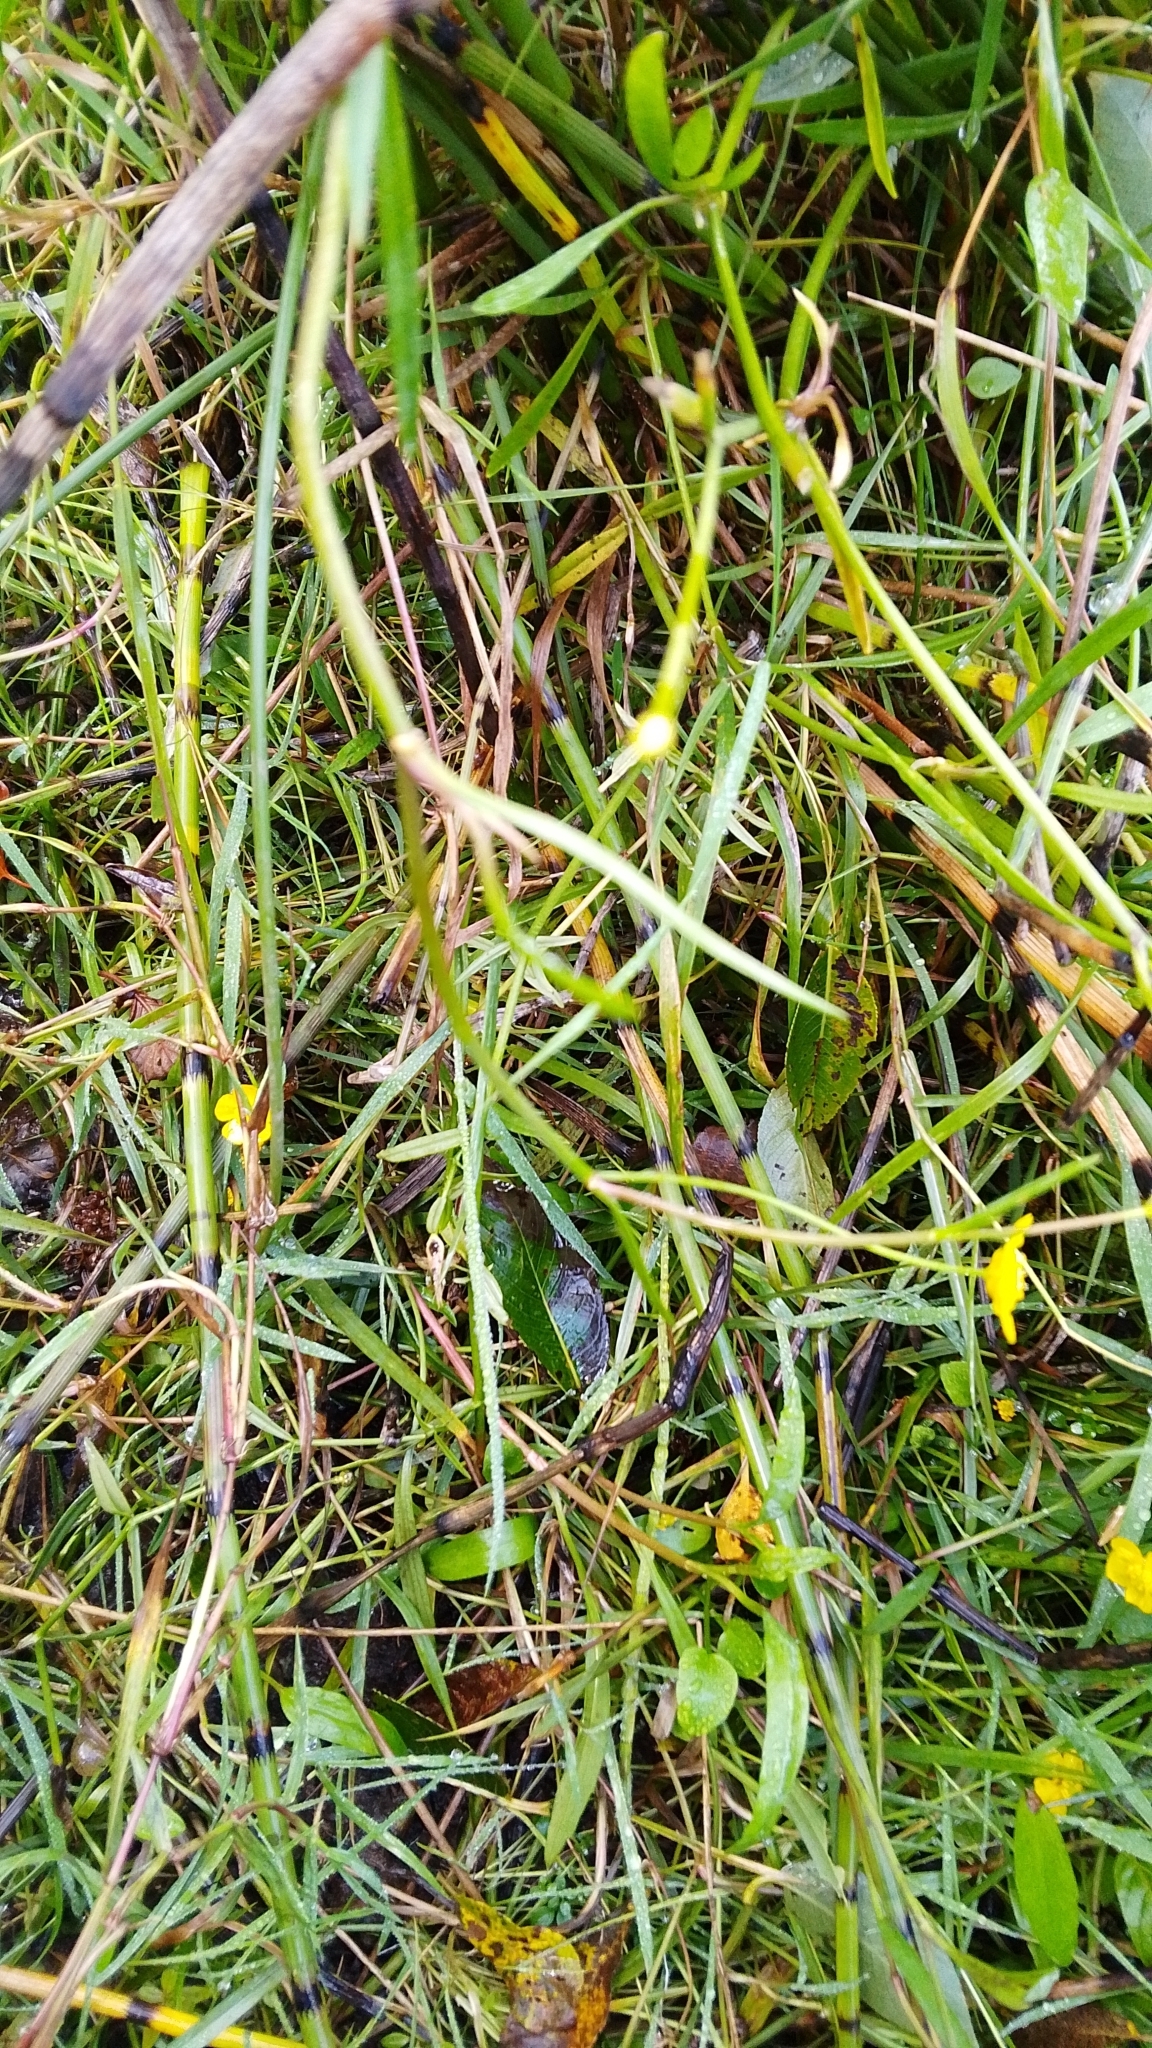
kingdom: Plantae
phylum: Tracheophyta
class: Magnoliopsida
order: Ranunculales
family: Ranunculaceae
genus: Ranunculus
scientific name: Ranunculus flammula
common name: Lesser spearwort
